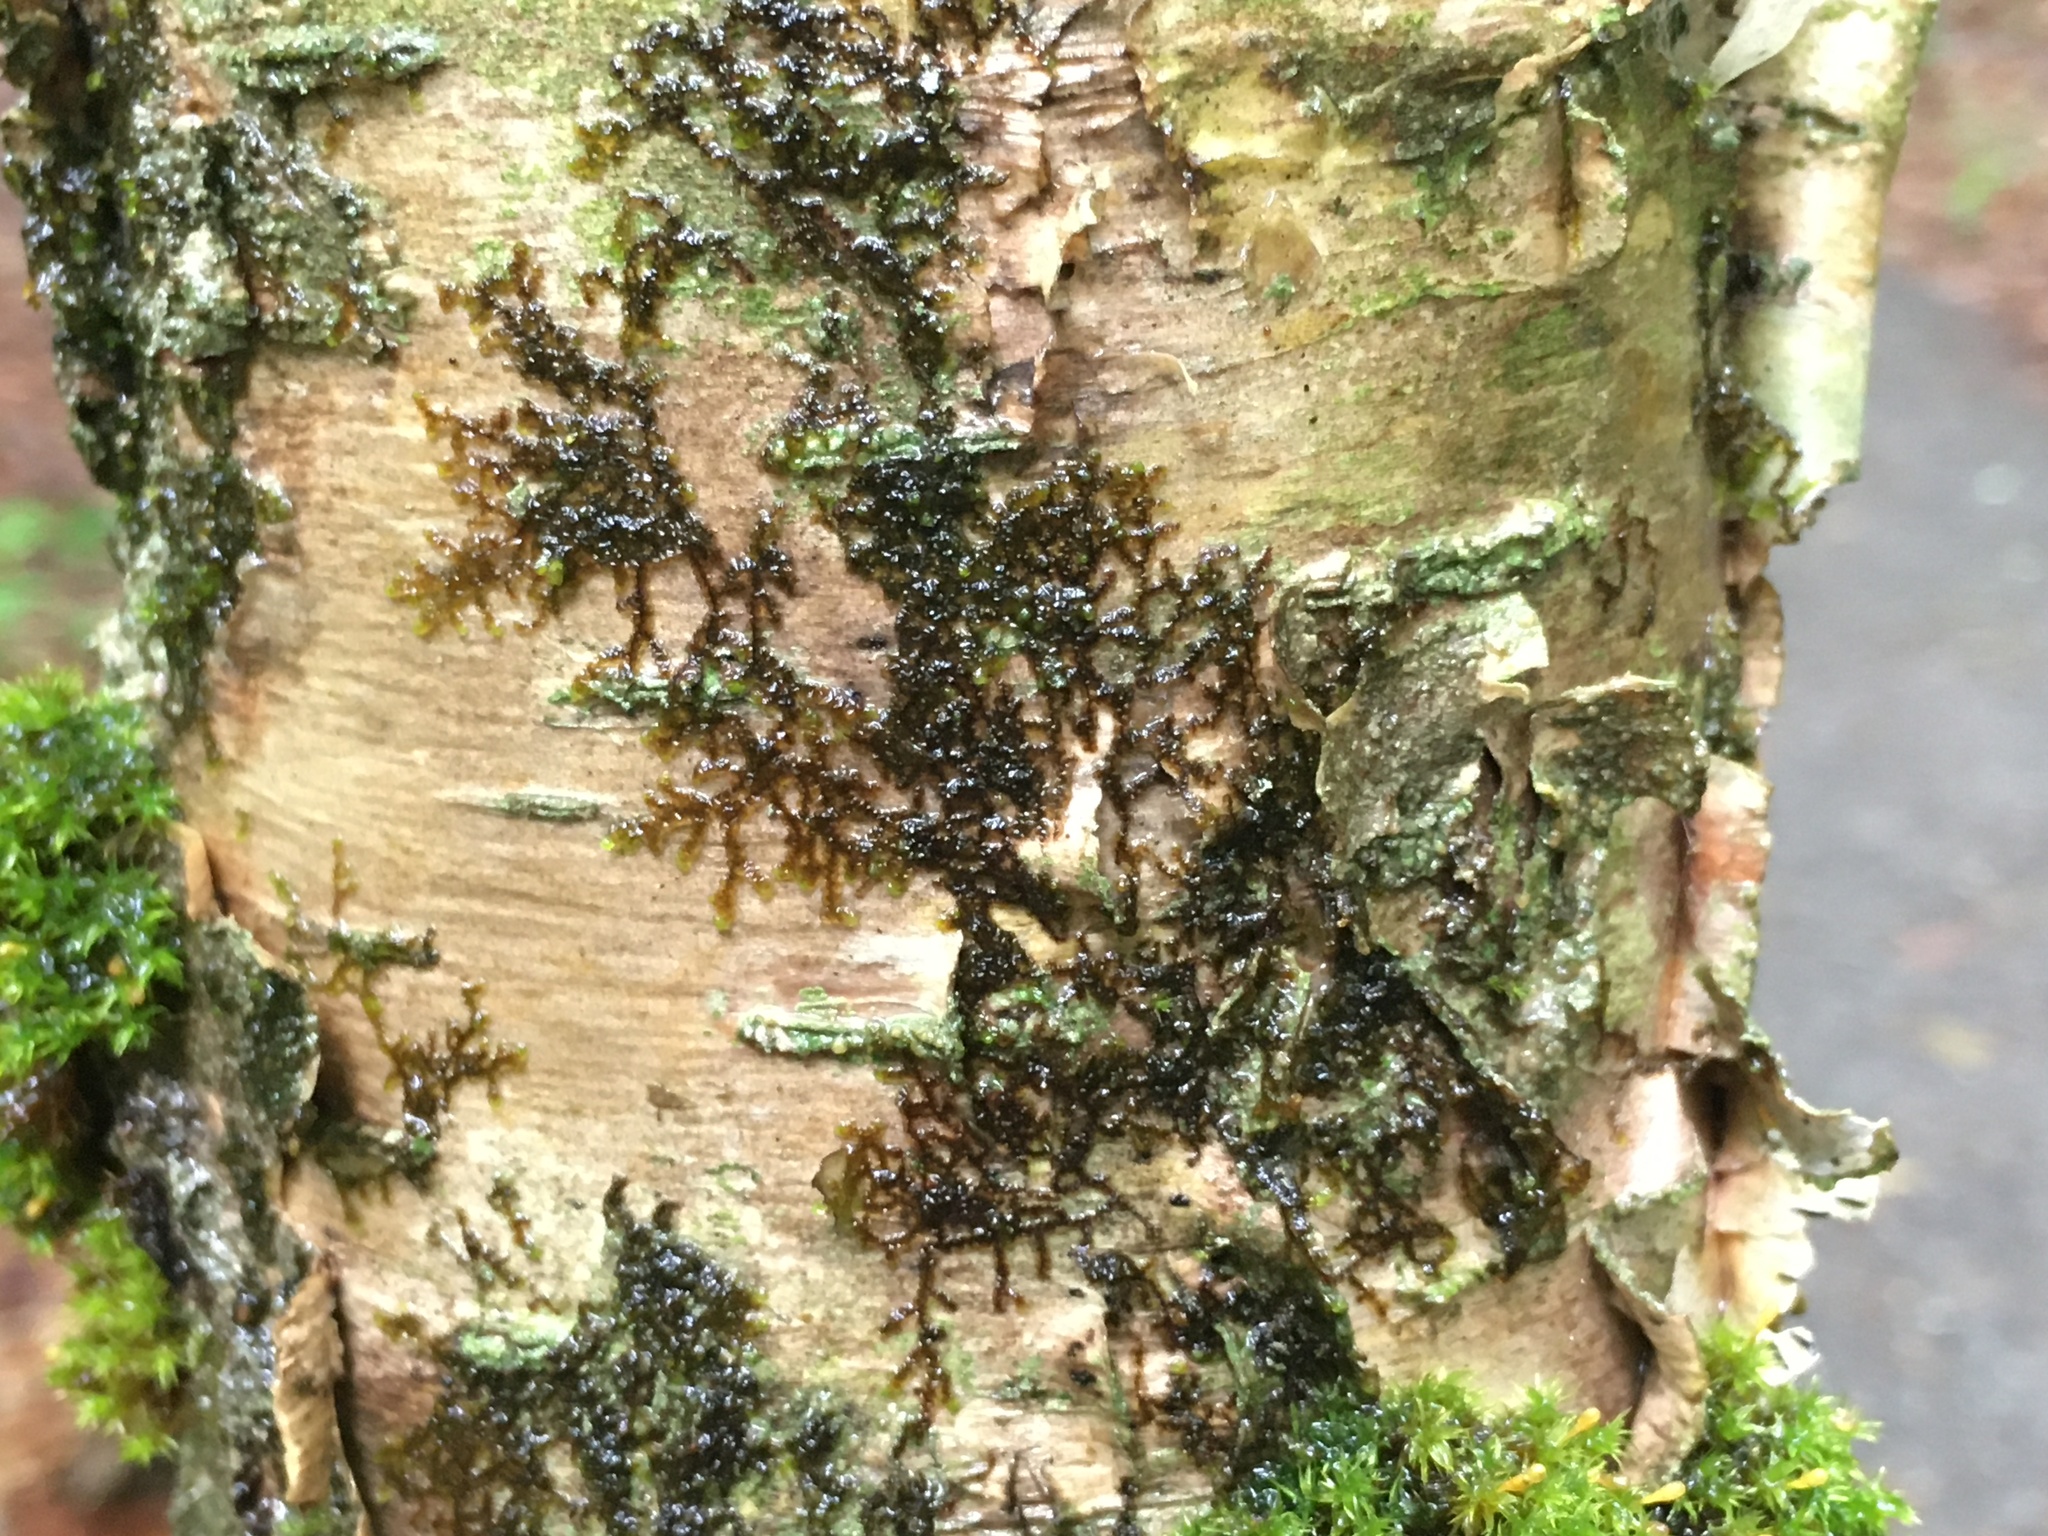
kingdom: Plantae
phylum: Marchantiophyta
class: Jungermanniopsida
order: Porellales
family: Frullaniaceae
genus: Frullania
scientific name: Frullania eboracensis
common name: New york scalewort
